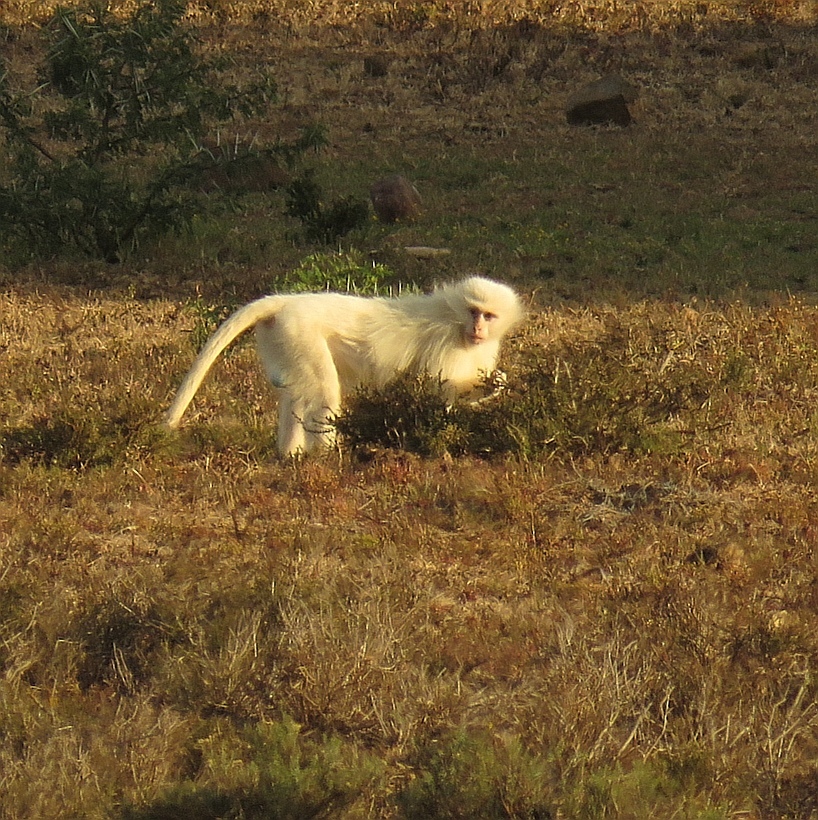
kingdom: Animalia
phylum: Chordata
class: Mammalia
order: Primates
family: Cercopithecidae
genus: Chlorocebus
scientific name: Chlorocebus pygerythrus
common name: Vervet monkey
